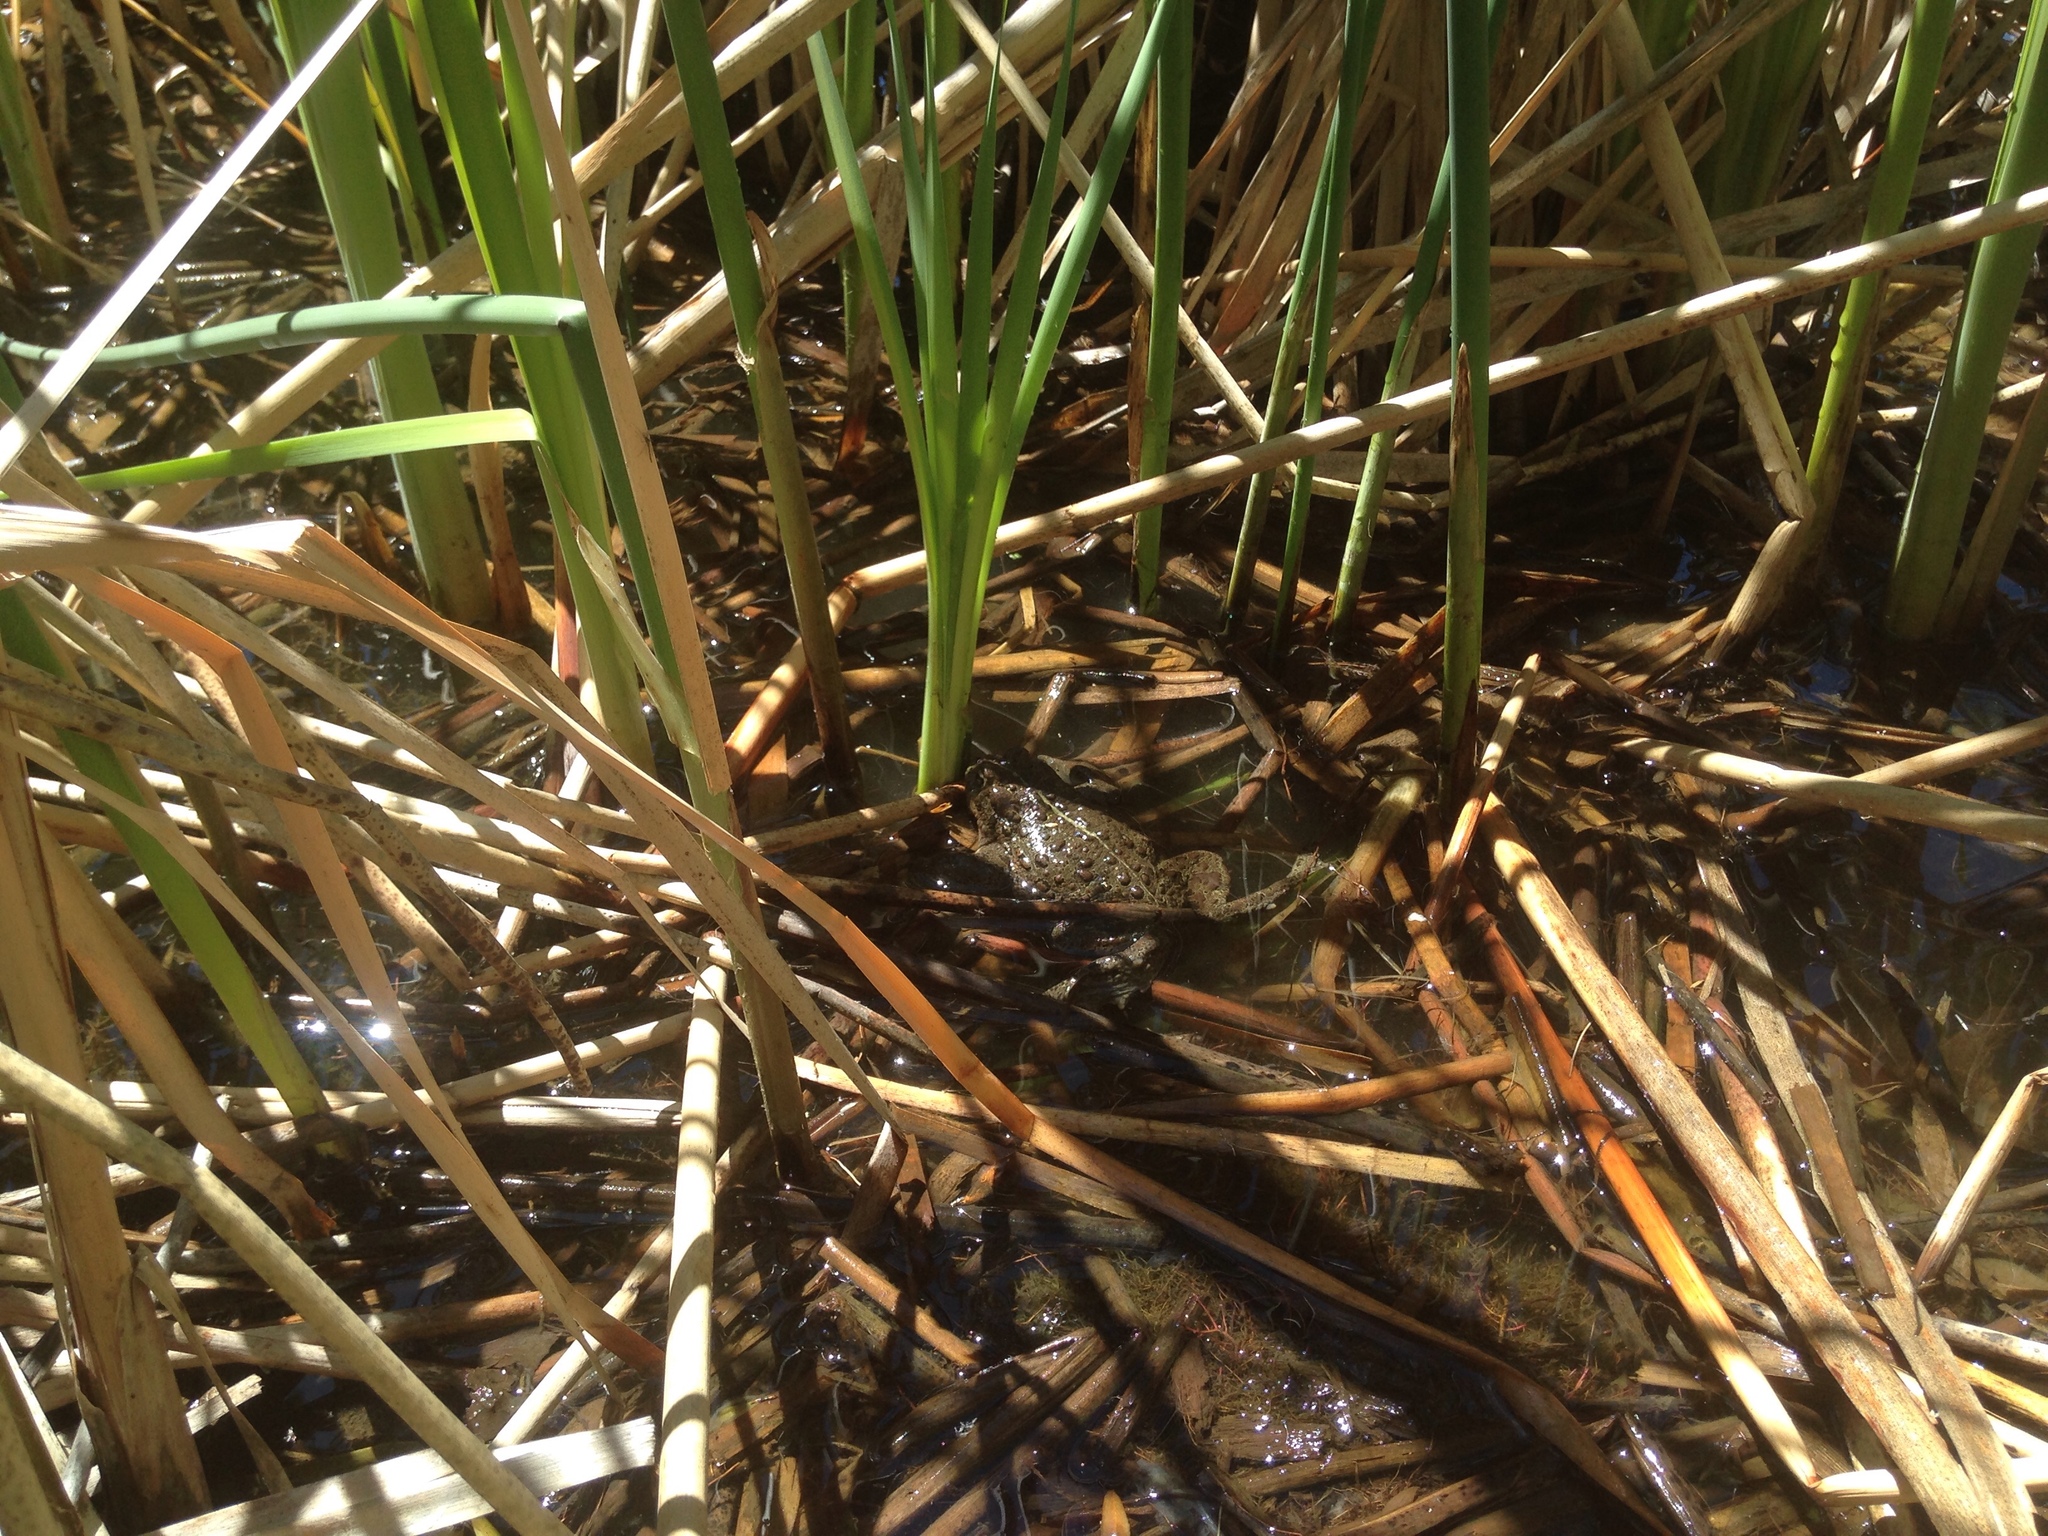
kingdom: Animalia
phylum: Chordata
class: Amphibia
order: Anura
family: Bufonidae
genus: Anaxyrus
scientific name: Anaxyrus boreas
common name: Western toad
